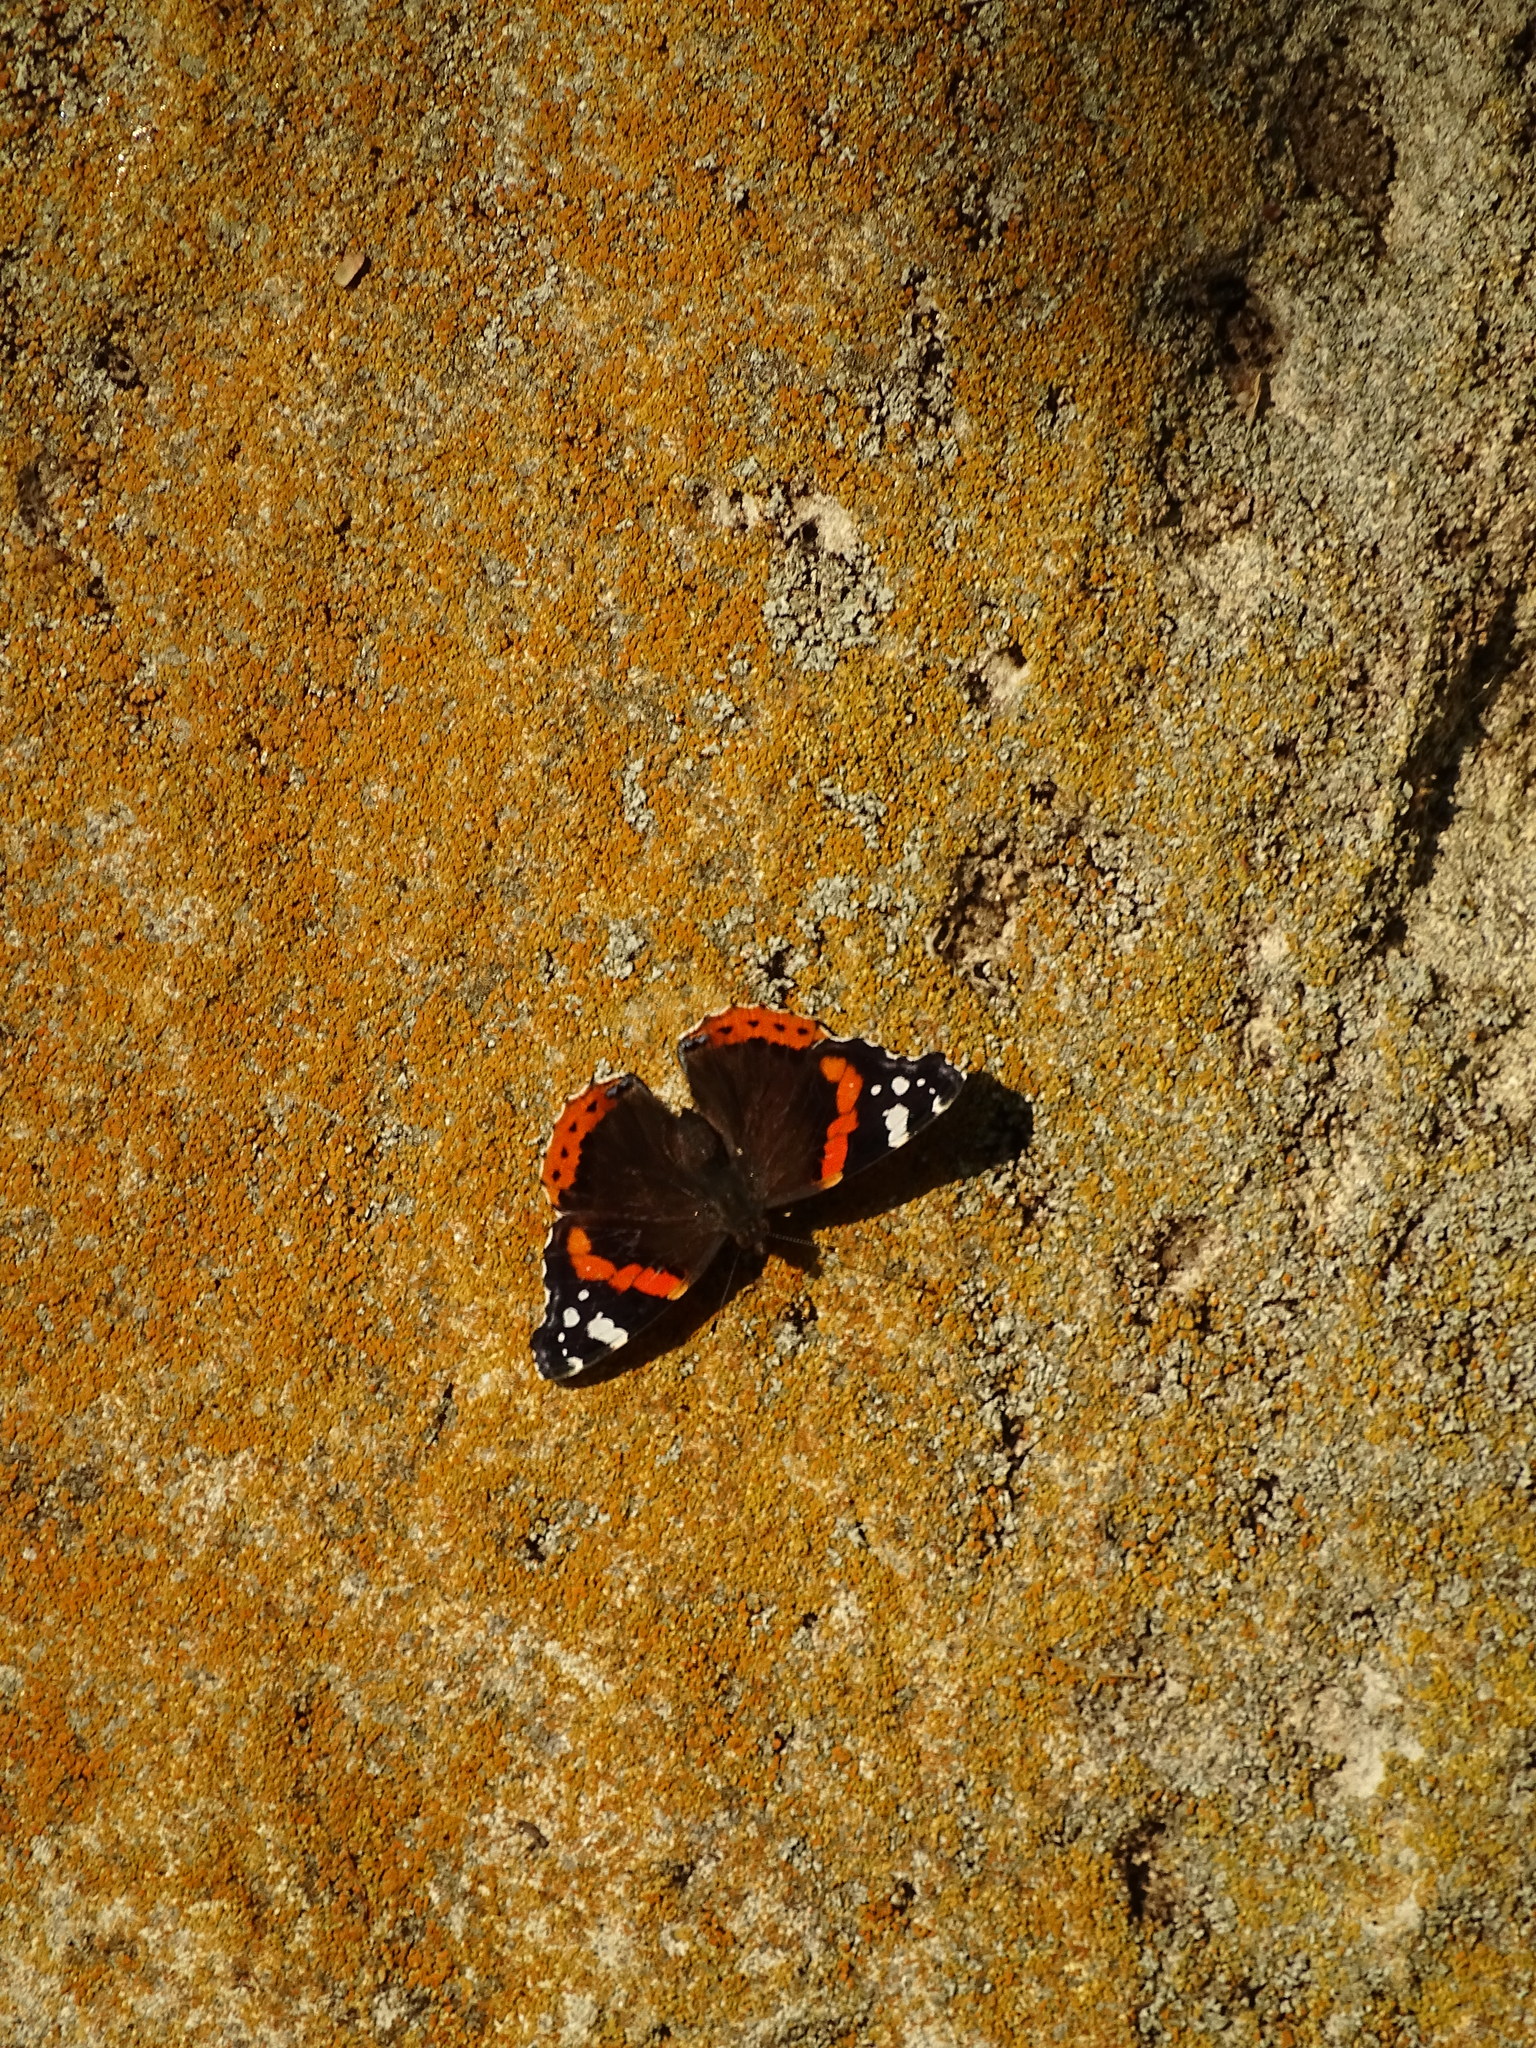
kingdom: Animalia
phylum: Arthropoda
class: Insecta
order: Lepidoptera
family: Nymphalidae
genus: Vanessa
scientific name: Vanessa atalanta
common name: Red admiral
